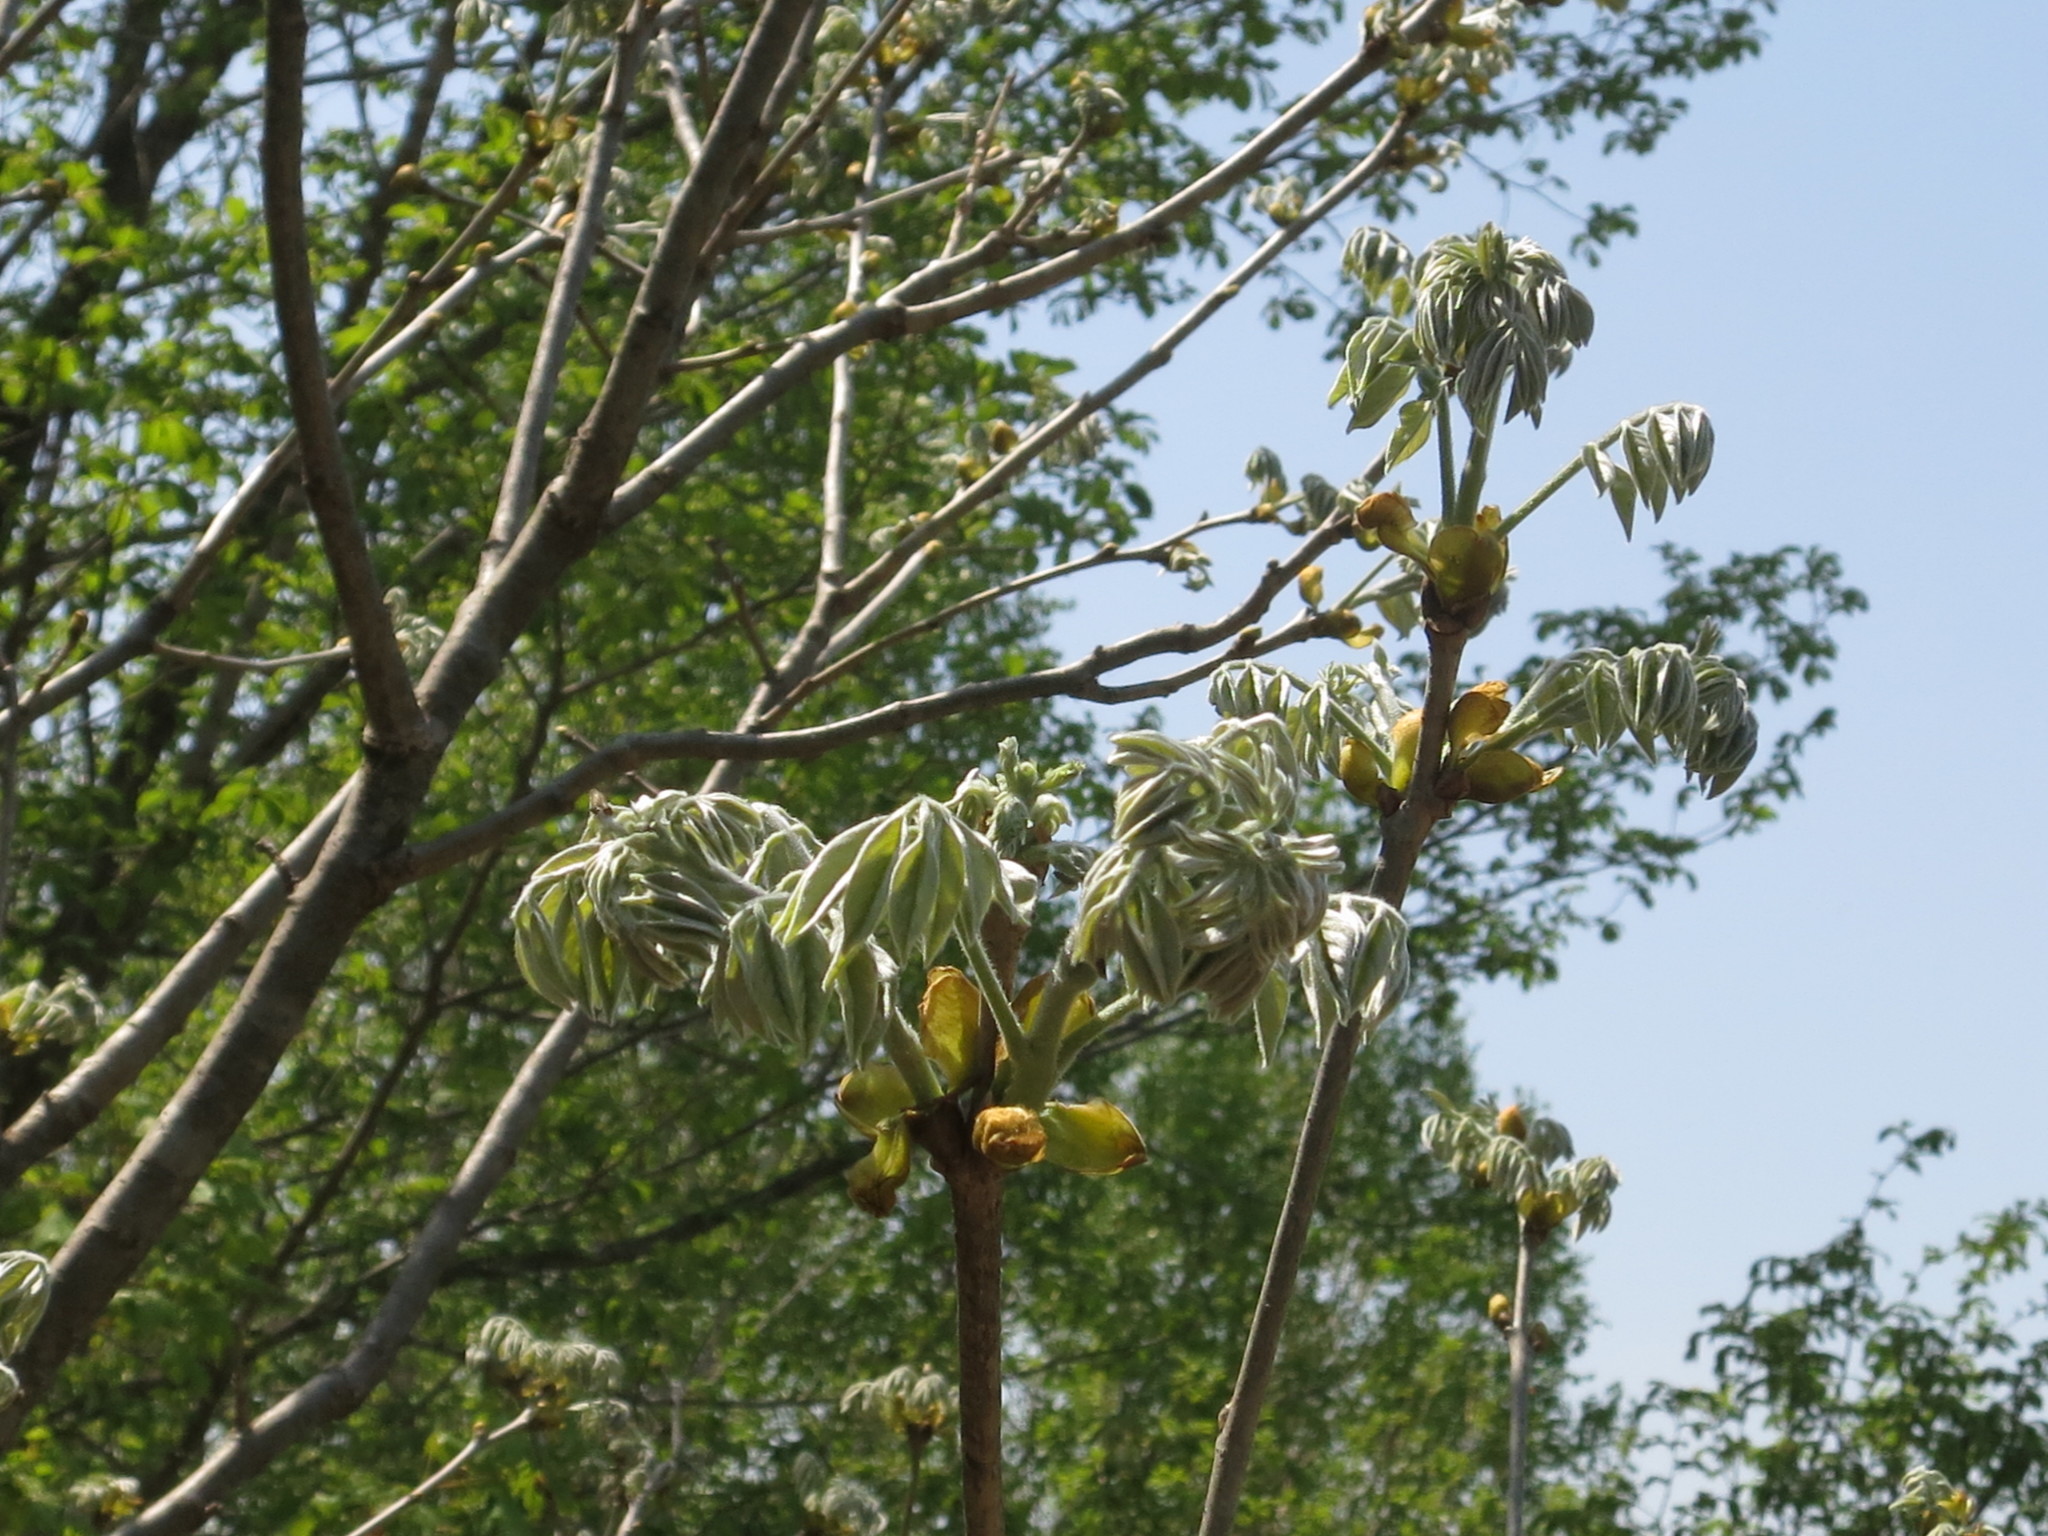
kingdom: Plantae
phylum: Tracheophyta
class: Magnoliopsida
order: Fabales
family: Fabaceae
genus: Maackia
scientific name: Maackia amurensis
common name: Amur maackia
